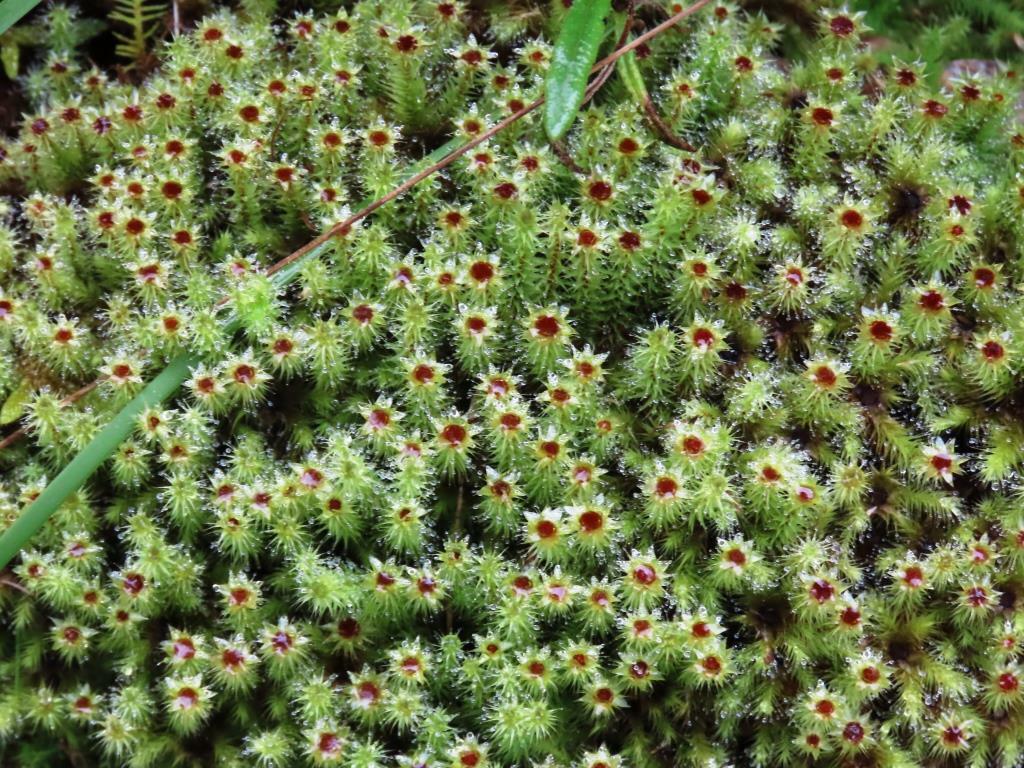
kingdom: Plantae
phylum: Bryophyta
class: Bryopsida
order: Bartramiales
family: Bartramiaceae
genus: Breutelia
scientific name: Breutelia affinis
